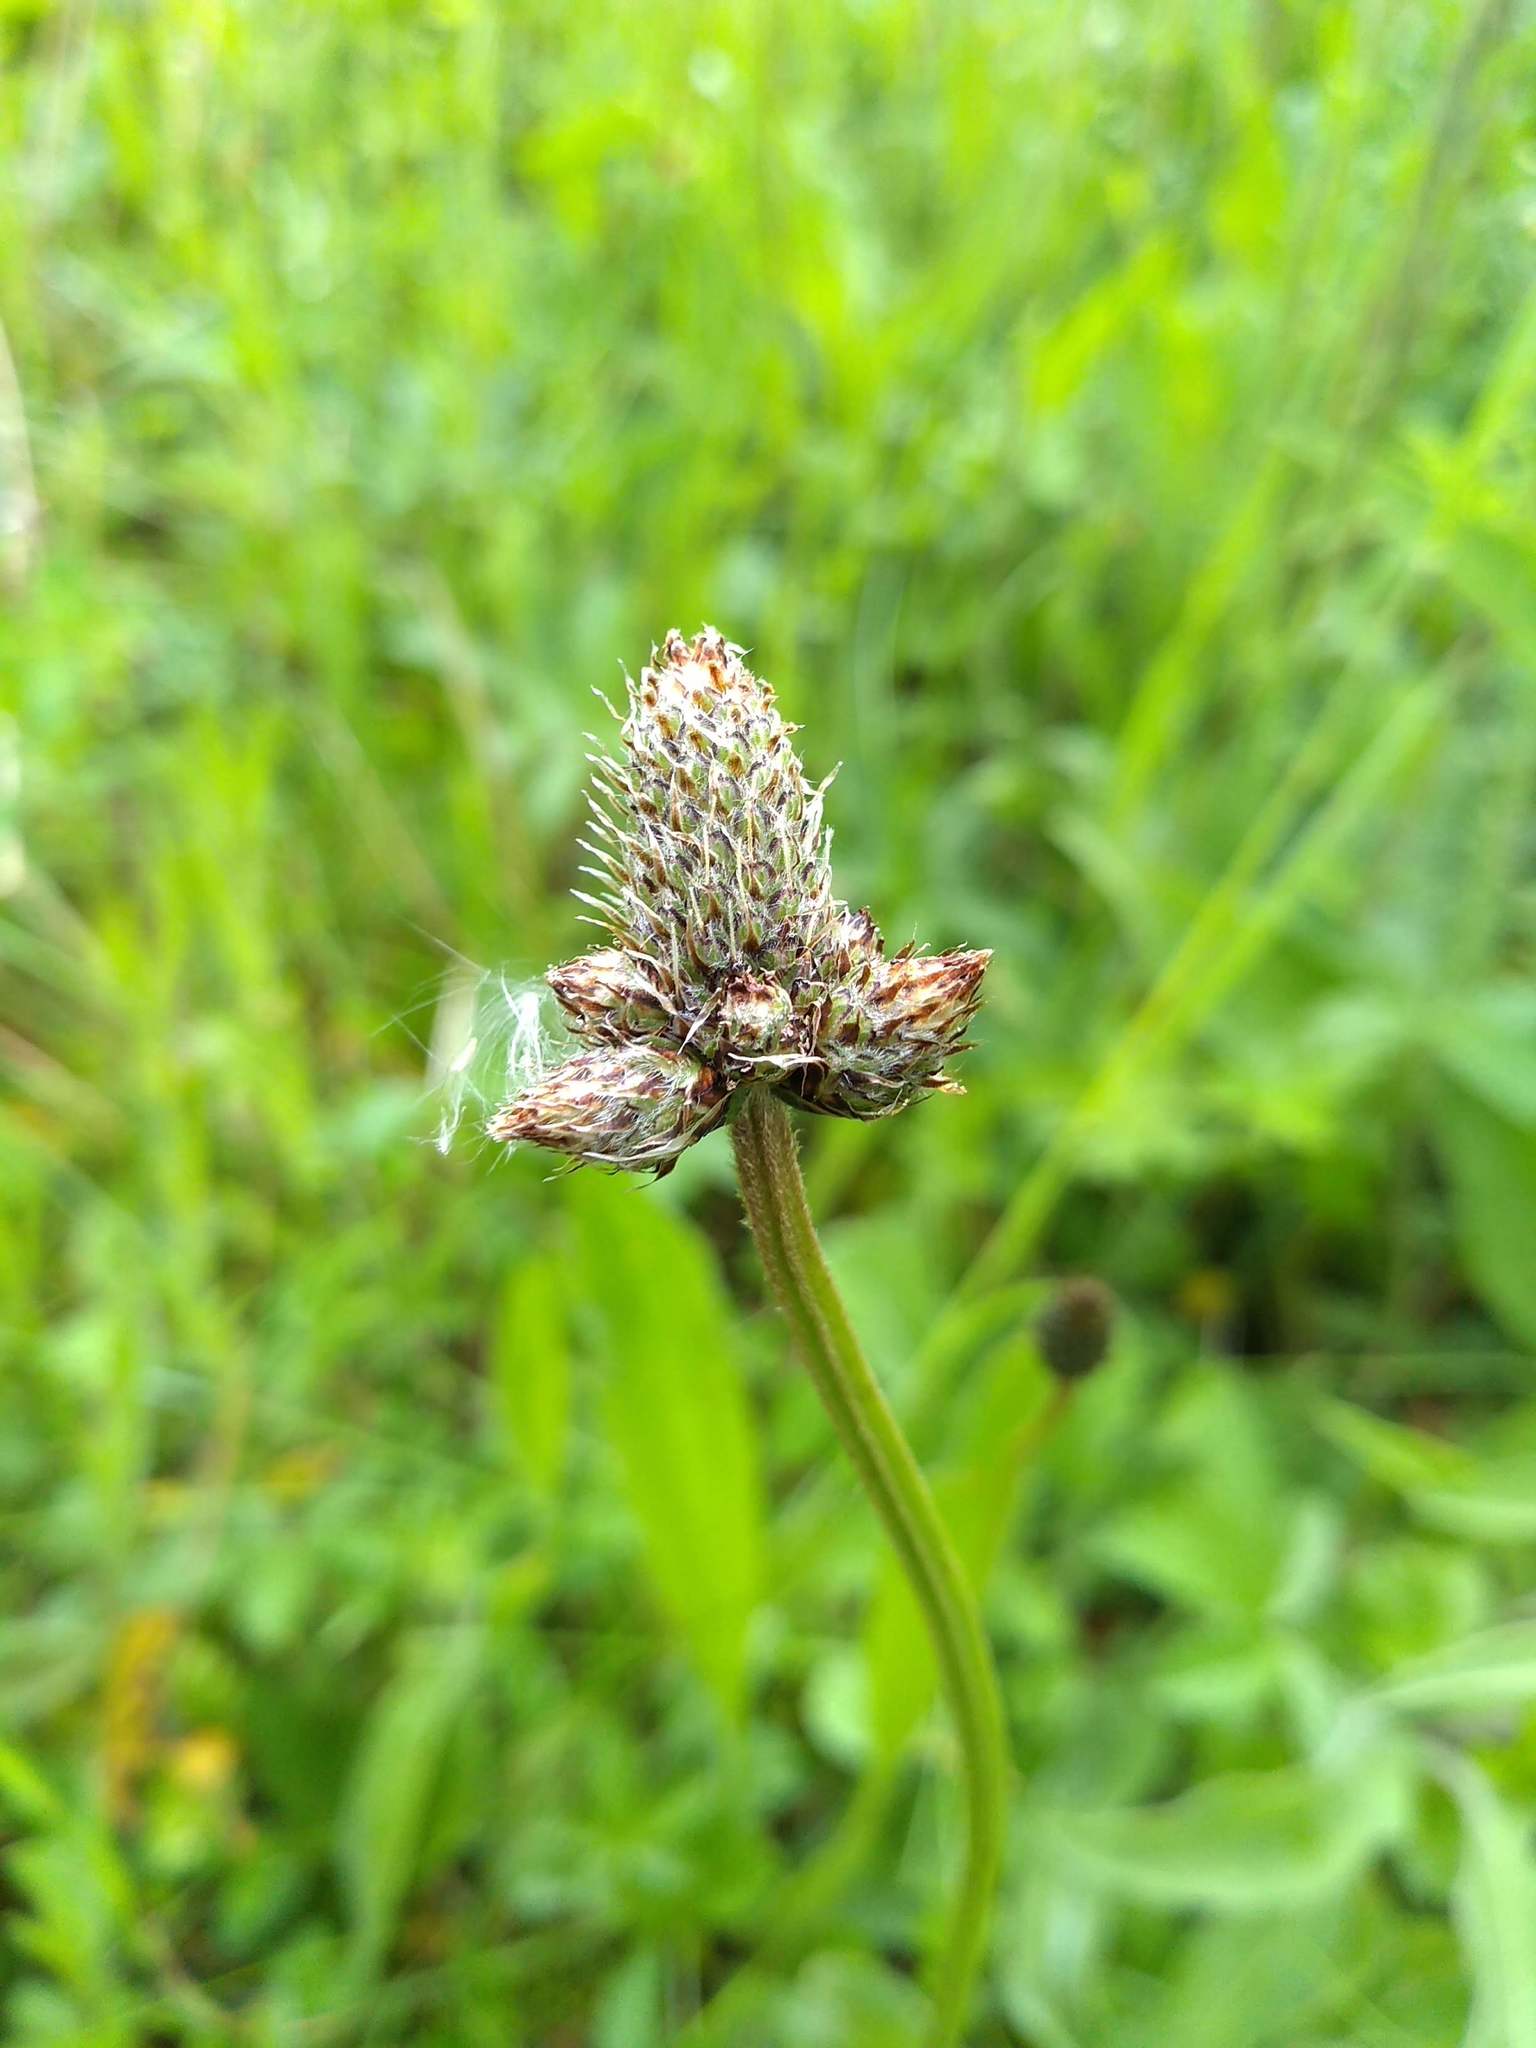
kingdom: Plantae
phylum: Tracheophyta
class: Magnoliopsida
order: Lamiales
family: Plantaginaceae
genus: Plantago
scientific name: Plantago lanceolata
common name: Ribwort plantain
